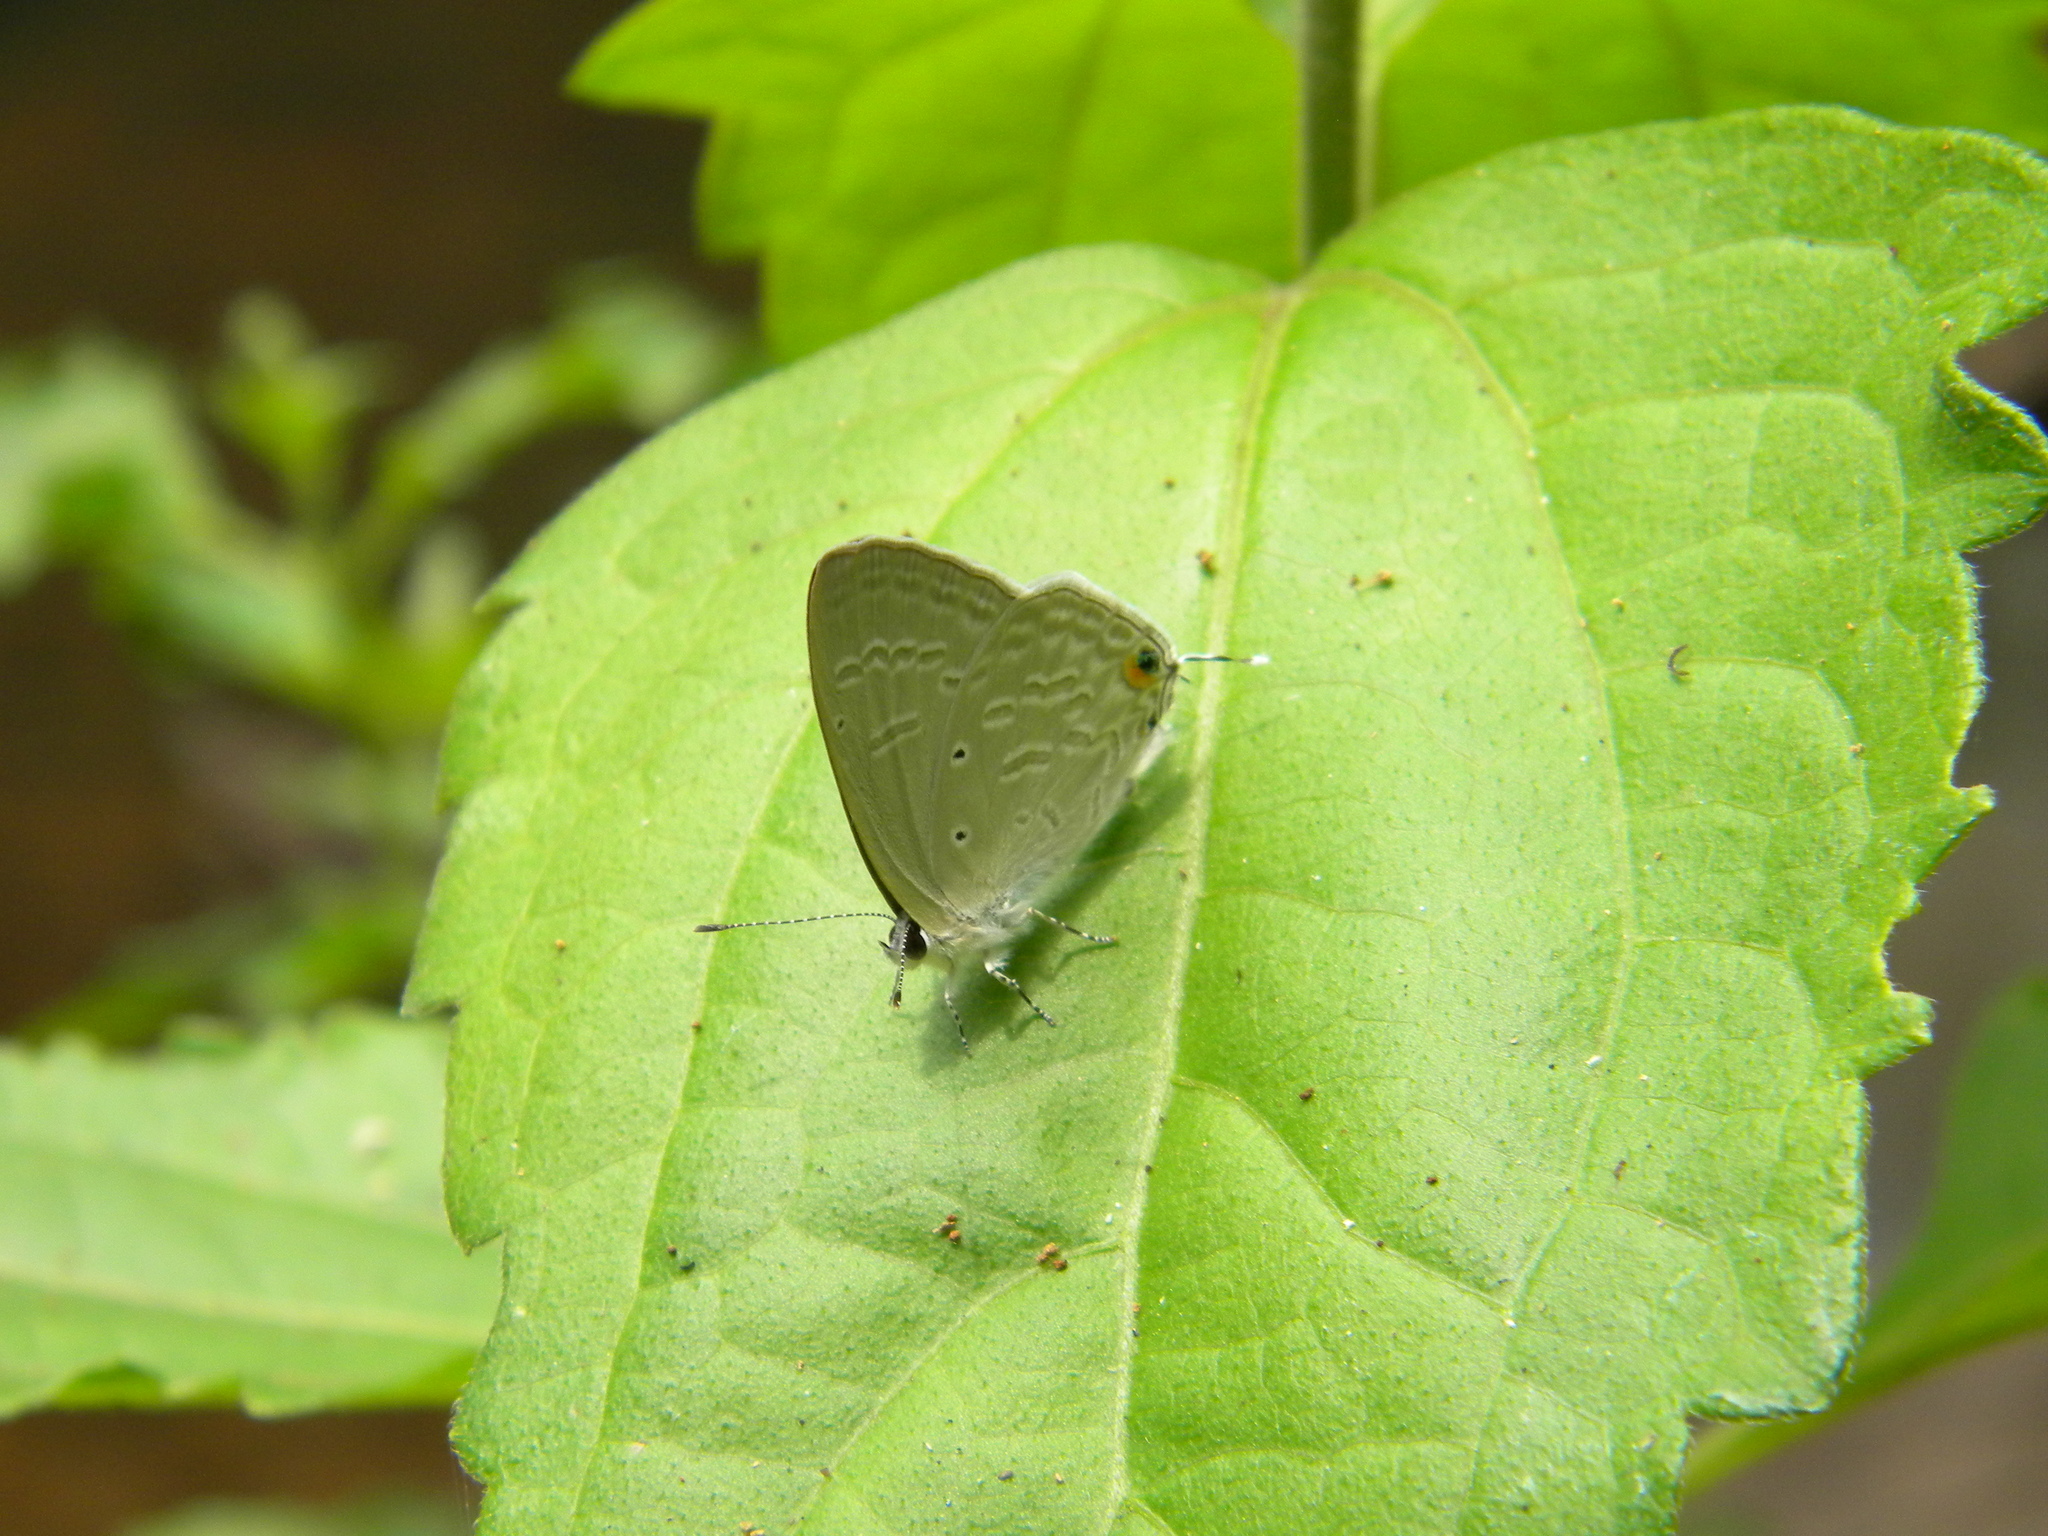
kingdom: Animalia
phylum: Arthropoda
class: Insecta
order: Lepidoptera
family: Lycaenidae
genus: Catochrysops
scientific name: Catochrysops strabo
